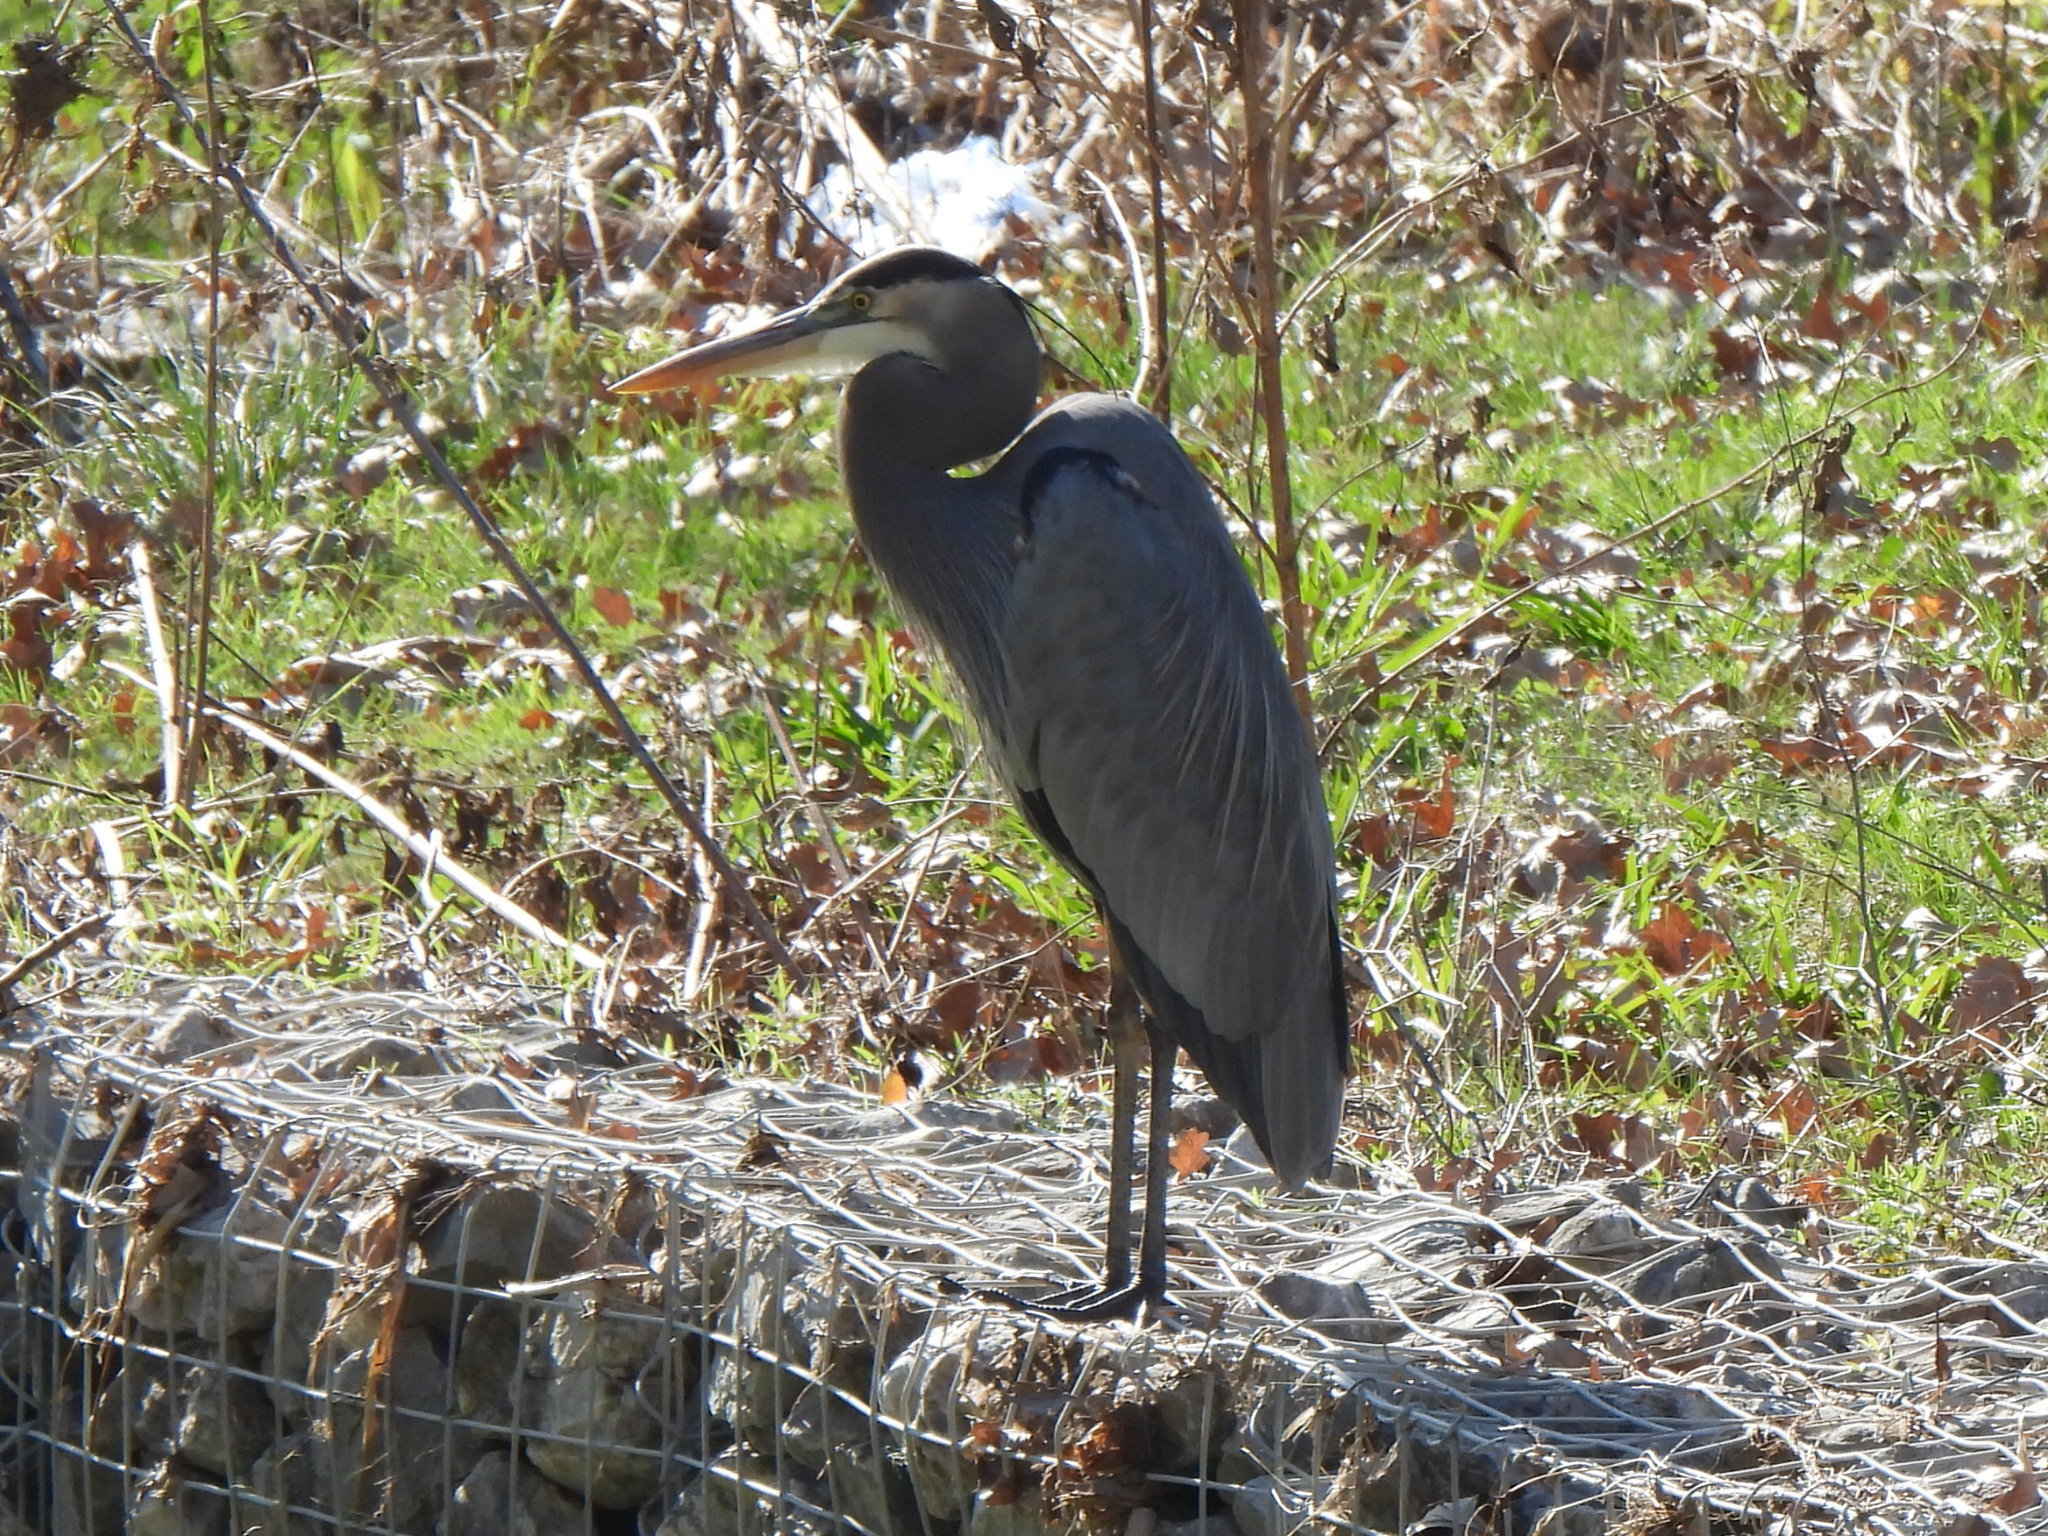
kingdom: Animalia
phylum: Chordata
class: Aves
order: Pelecaniformes
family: Ardeidae
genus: Ardea
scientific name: Ardea herodias
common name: Great blue heron
